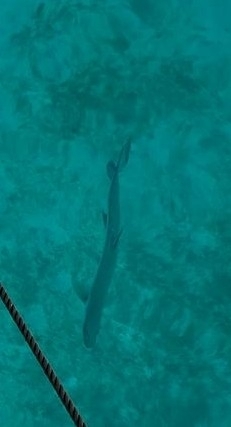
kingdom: Animalia
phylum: Chordata
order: Elopiformes
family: Megalopidae
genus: Megalops
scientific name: Megalops atlanticus
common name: Tarpon
